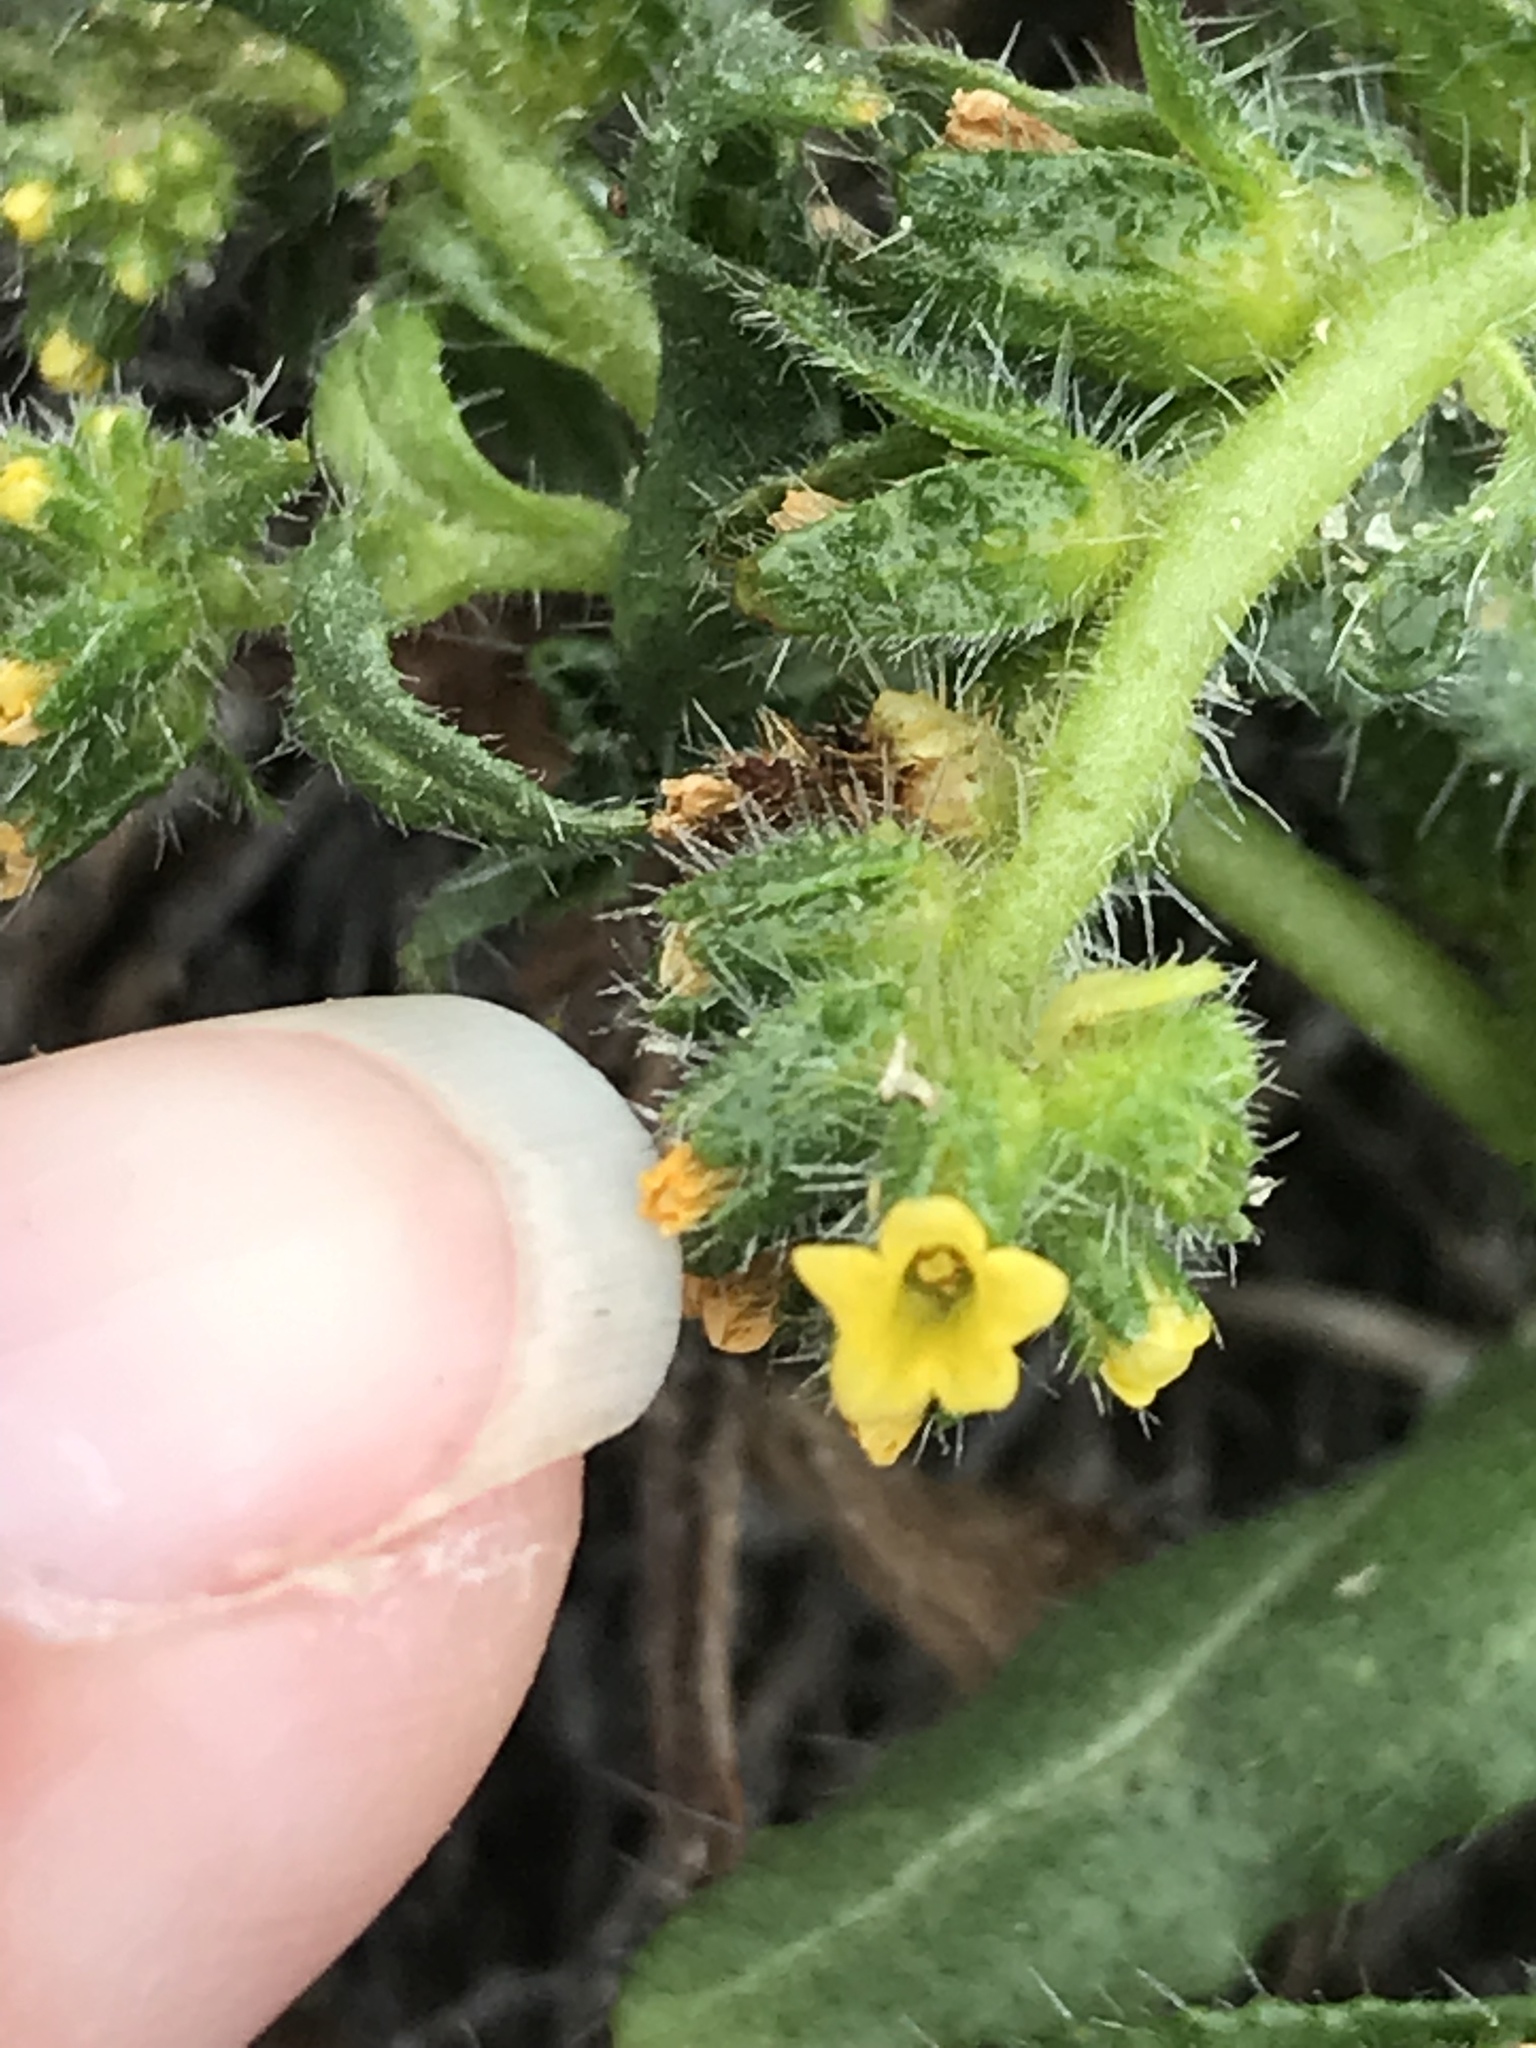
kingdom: Plantae
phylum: Tracheophyta
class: Magnoliopsida
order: Boraginales
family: Boraginaceae
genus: Amsinckia
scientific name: Amsinckia spectabilis
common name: Seaside fiddleneck
